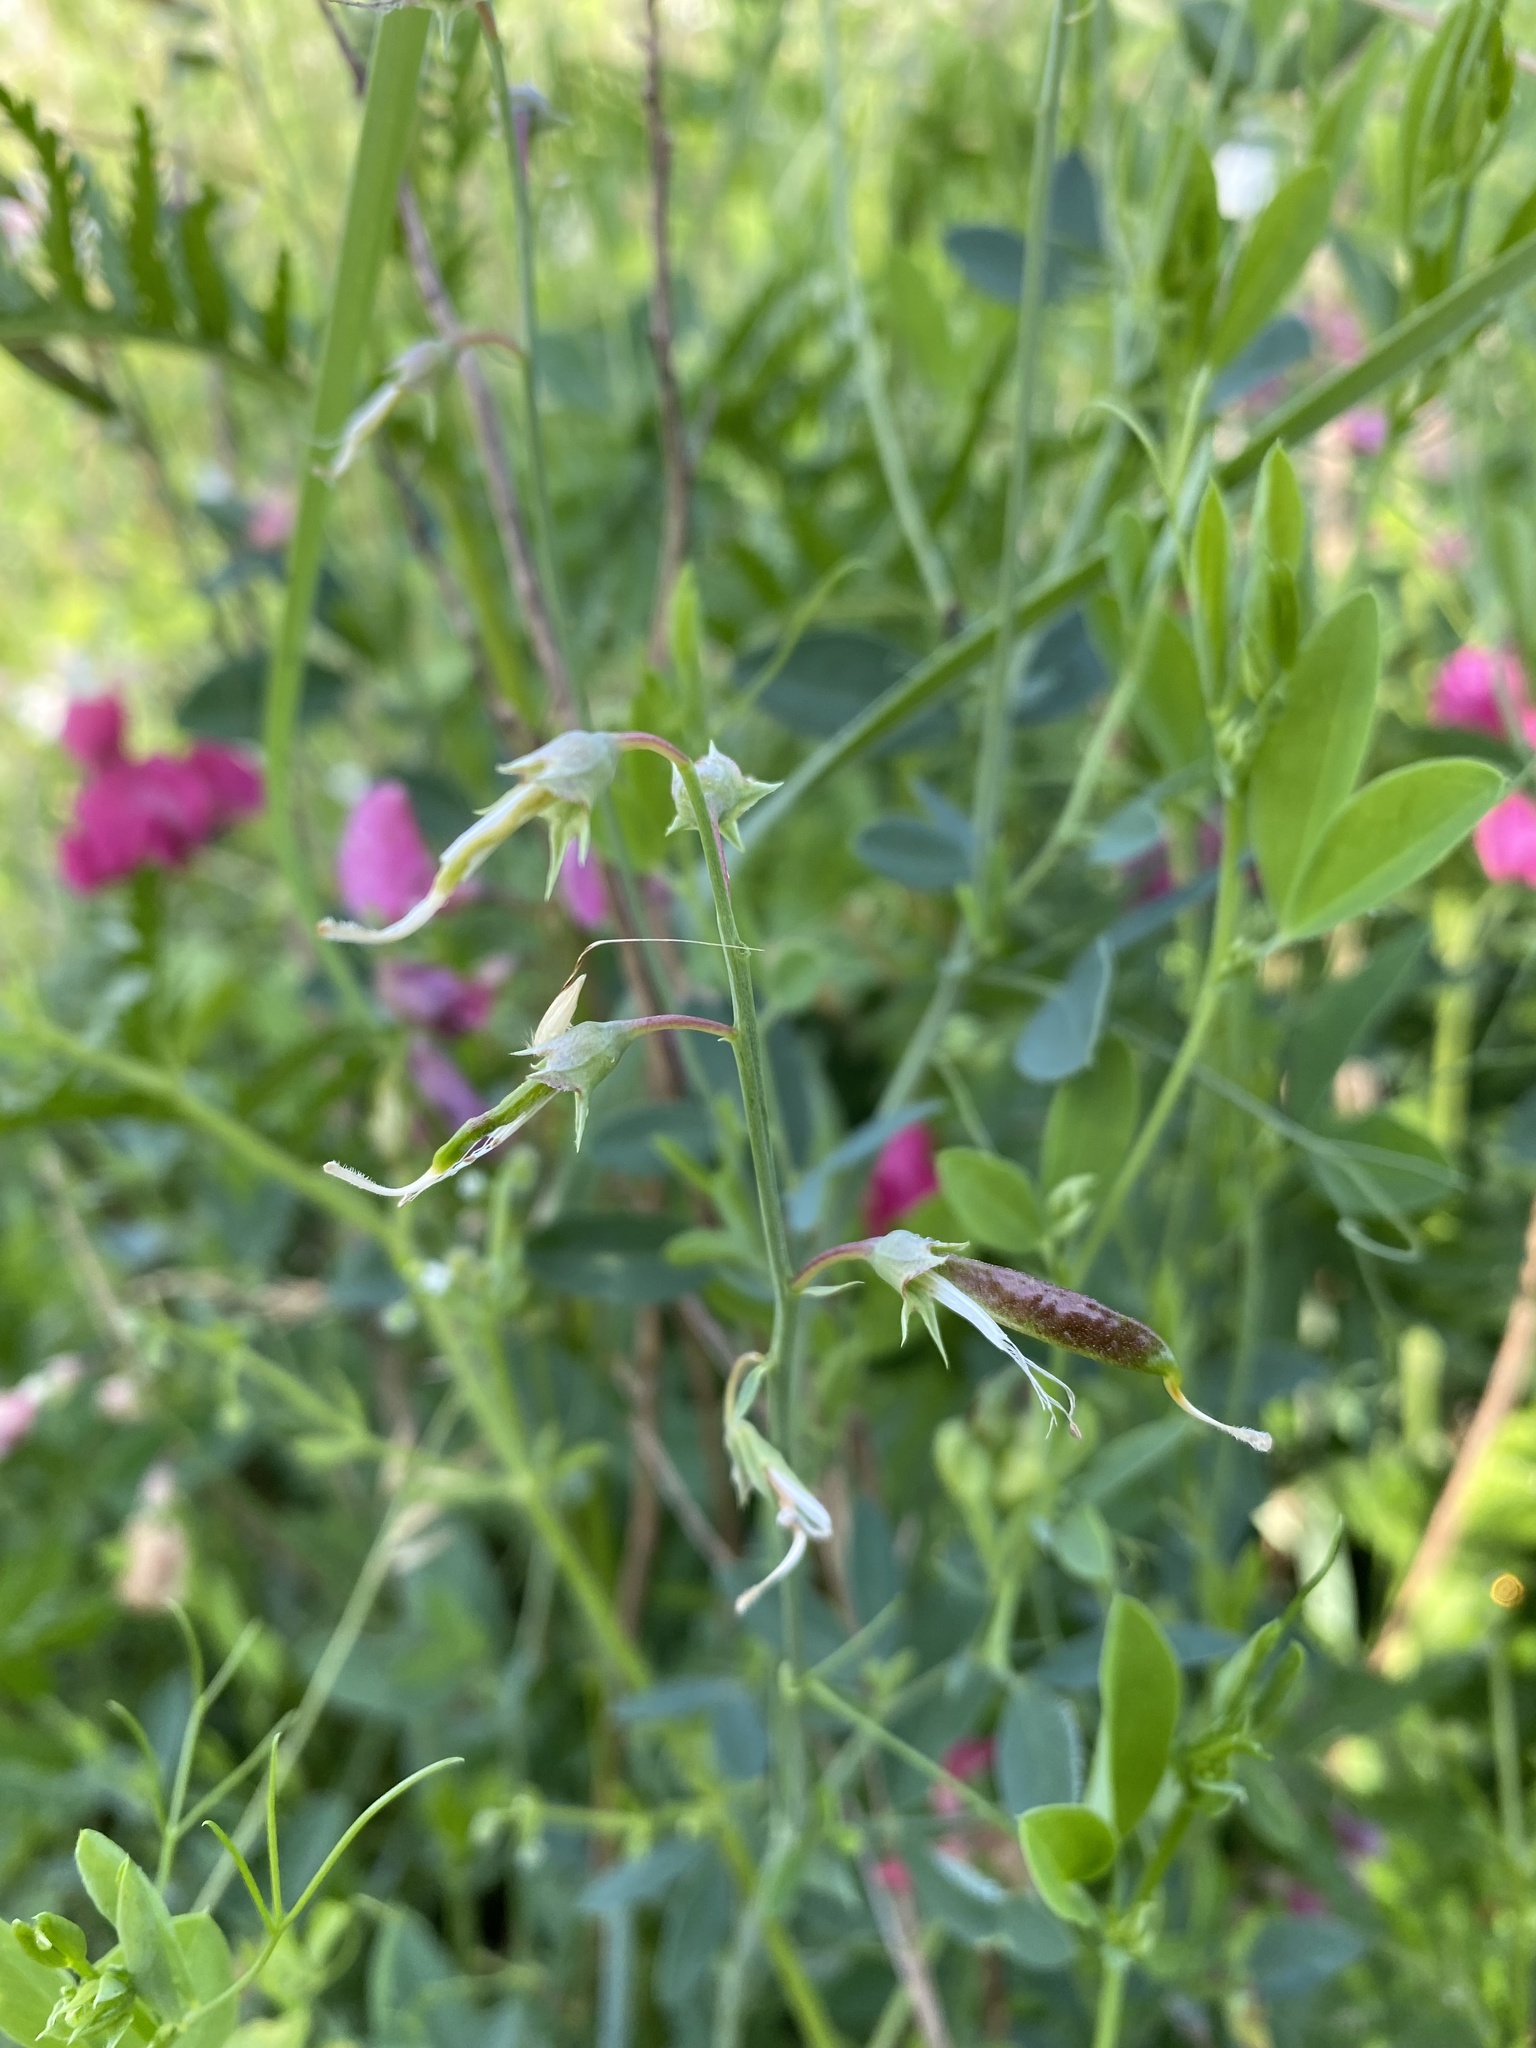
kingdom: Plantae
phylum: Tracheophyta
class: Magnoliopsida
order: Fabales
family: Fabaceae
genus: Lathyrus
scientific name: Lathyrus tuberosus
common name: Tuberous pea
